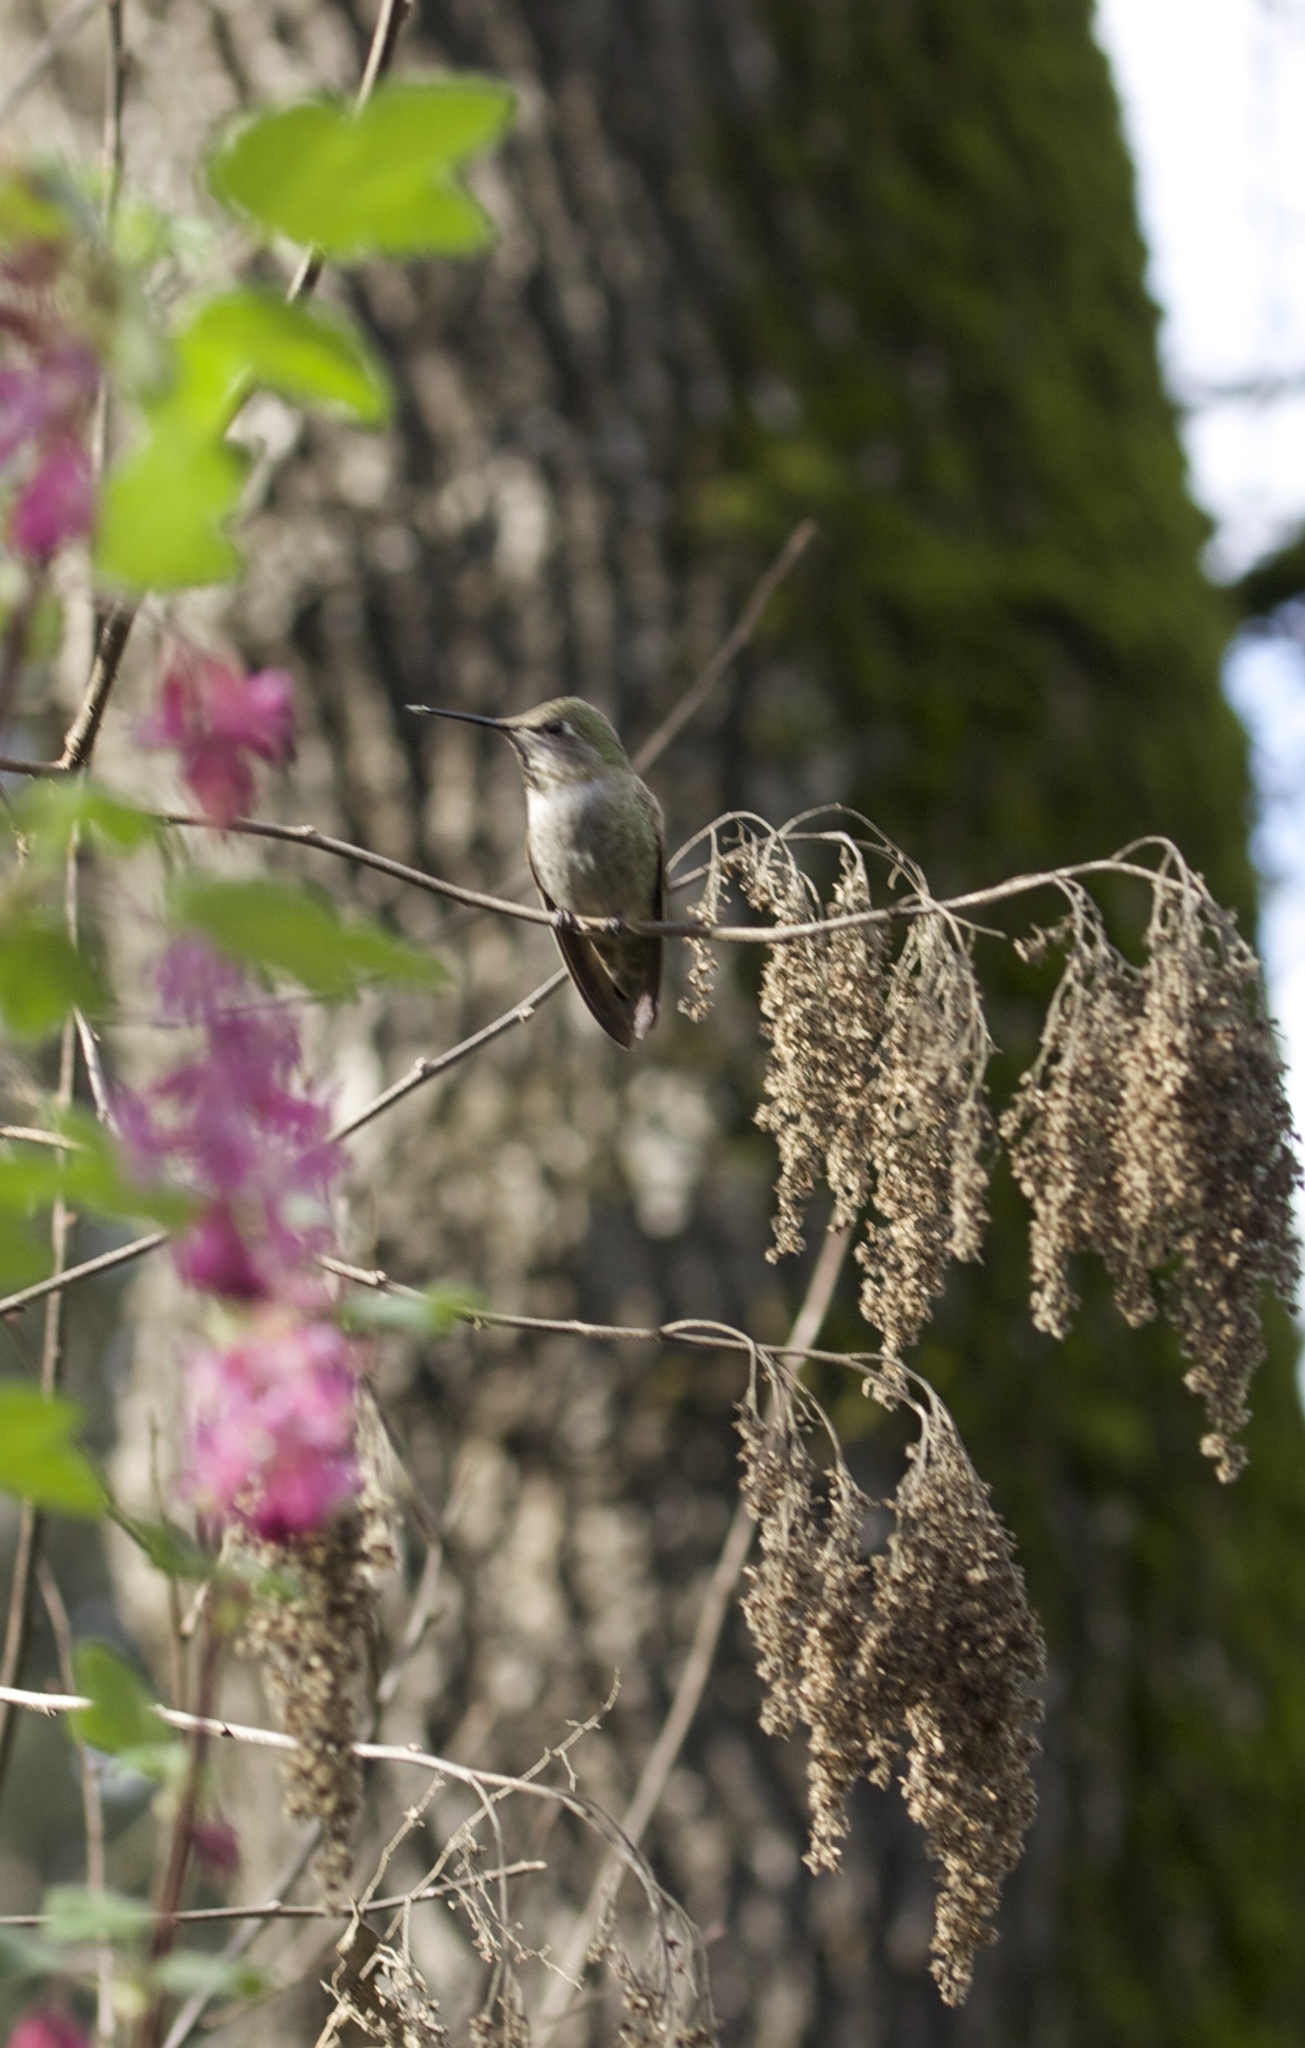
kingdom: Animalia
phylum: Chordata
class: Aves
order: Apodiformes
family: Trochilidae
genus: Calypte
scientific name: Calypte anna
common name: Anna's hummingbird
